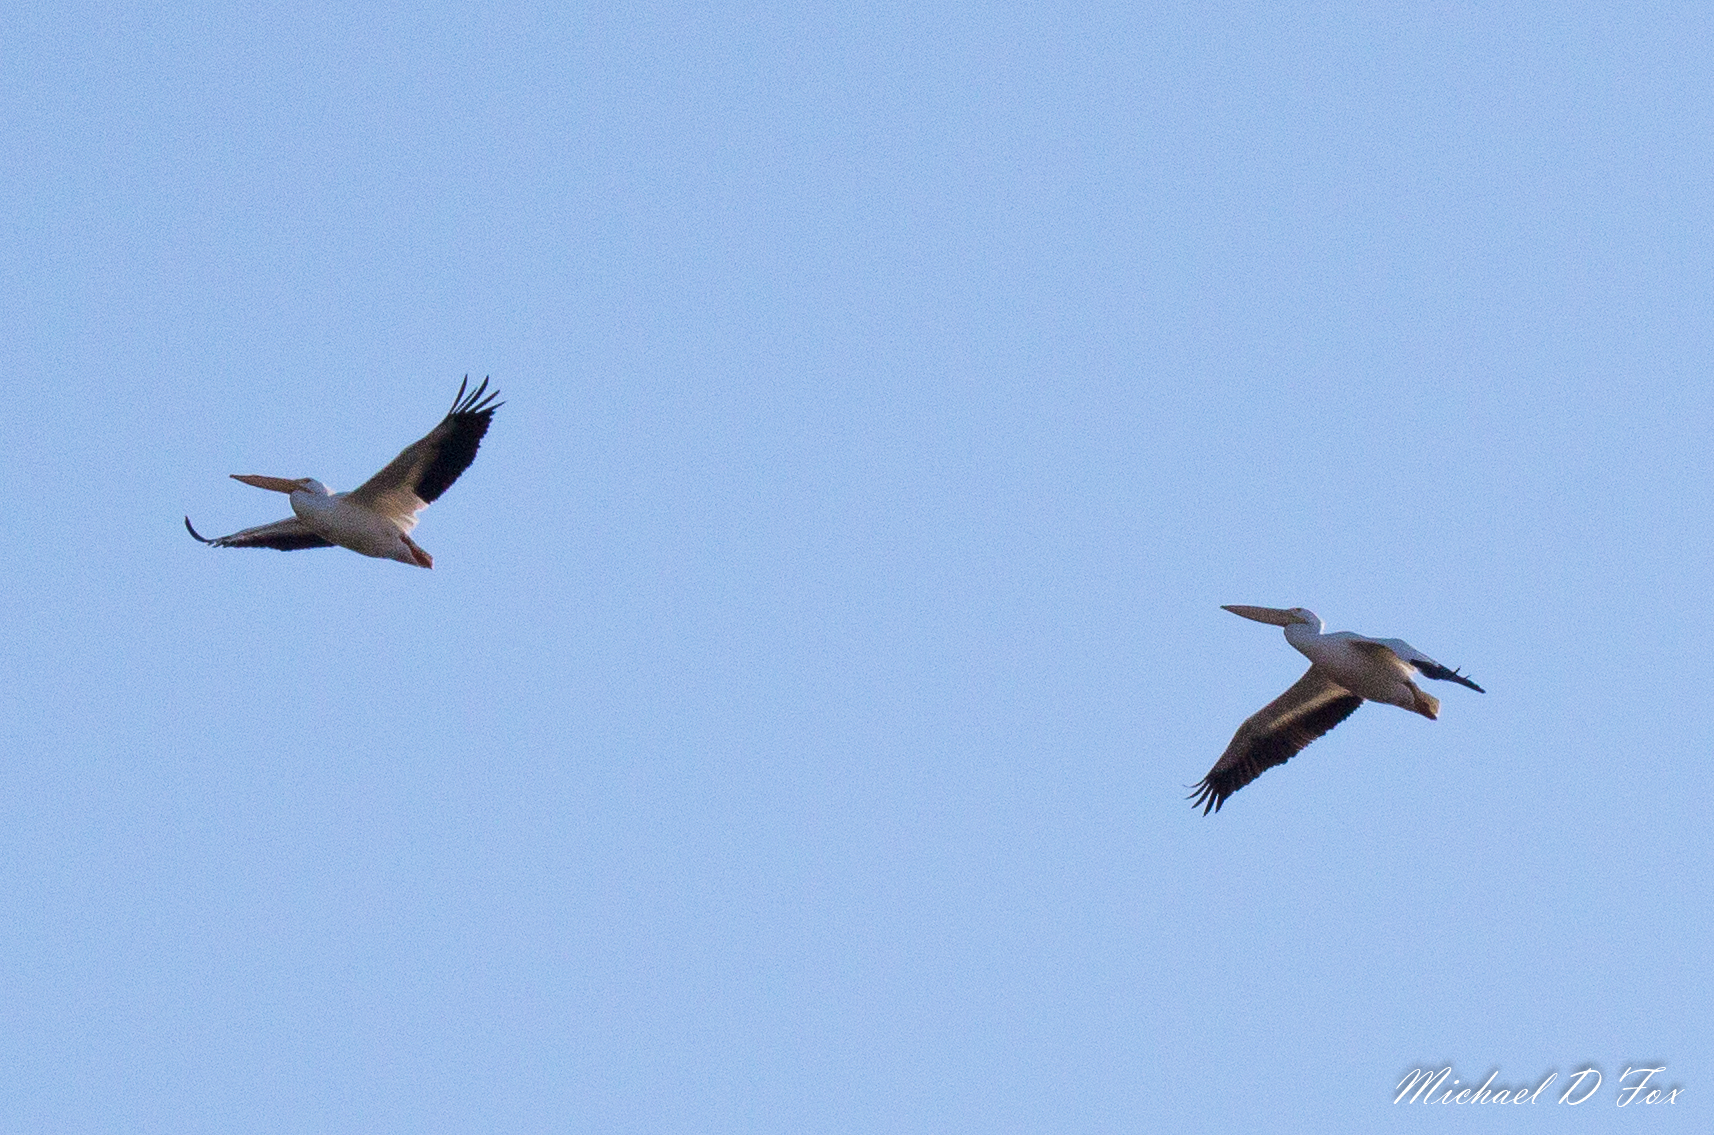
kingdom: Animalia
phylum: Chordata
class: Aves
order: Pelecaniformes
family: Pelecanidae
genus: Pelecanus
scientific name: Pelecanus erythrorhynchos
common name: American white pelican
